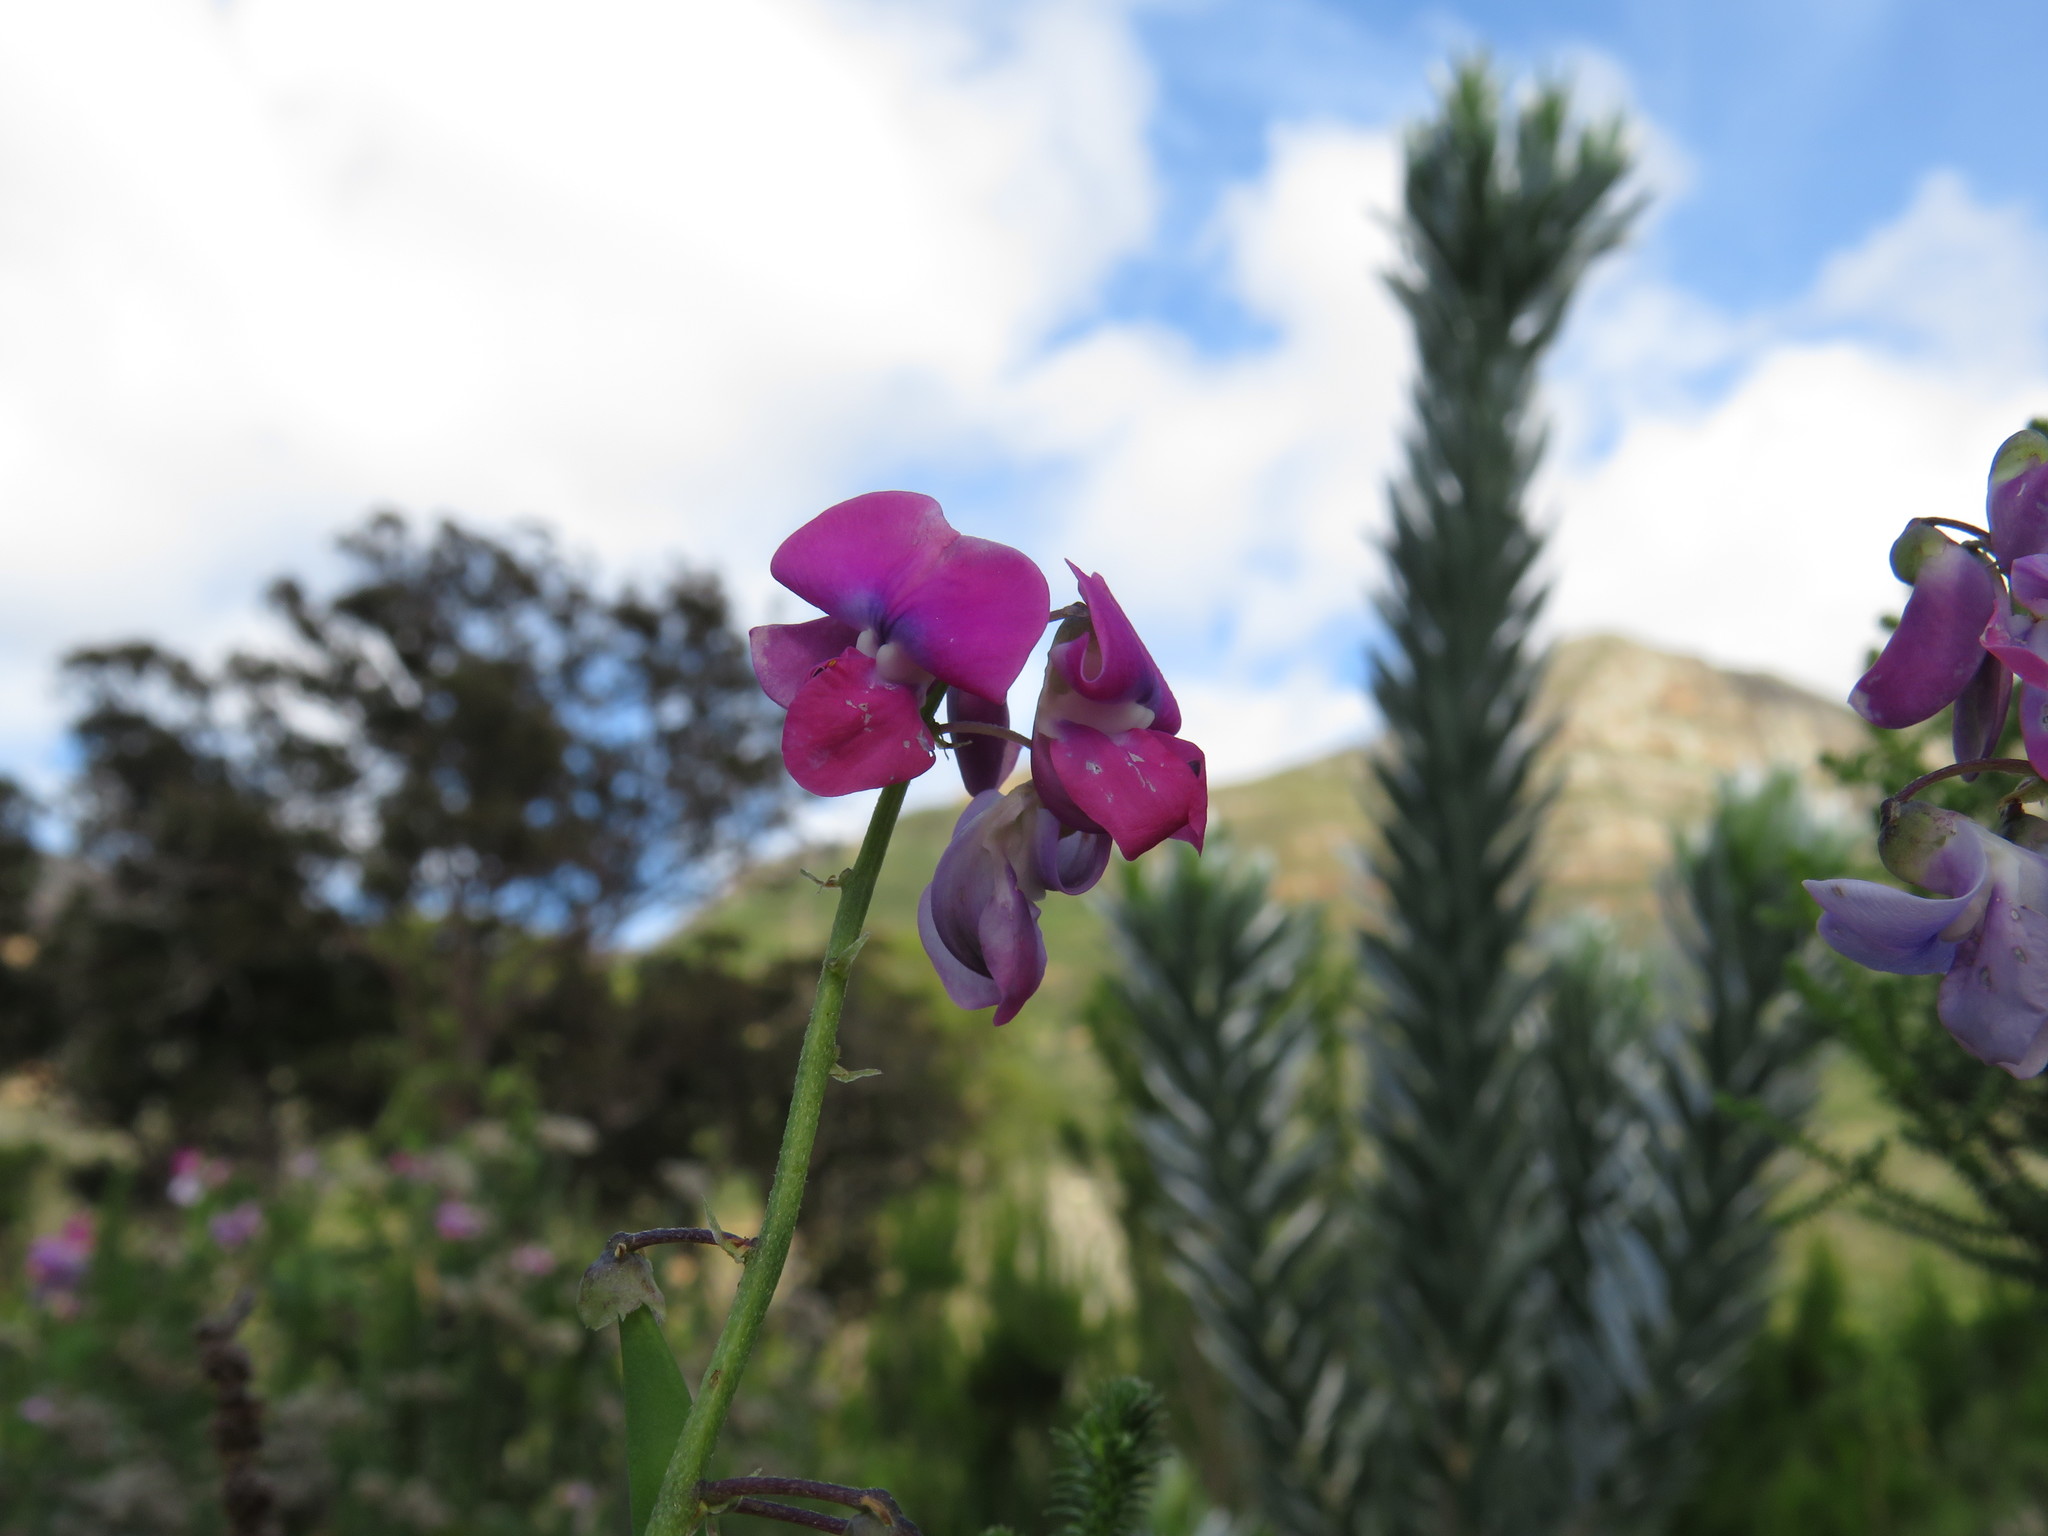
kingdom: Plantae
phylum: Tracheophyta
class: Magnoliopsida
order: Fabales
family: Fabaceae
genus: Dipogon
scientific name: Dipogon lignosus
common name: Okie bean
